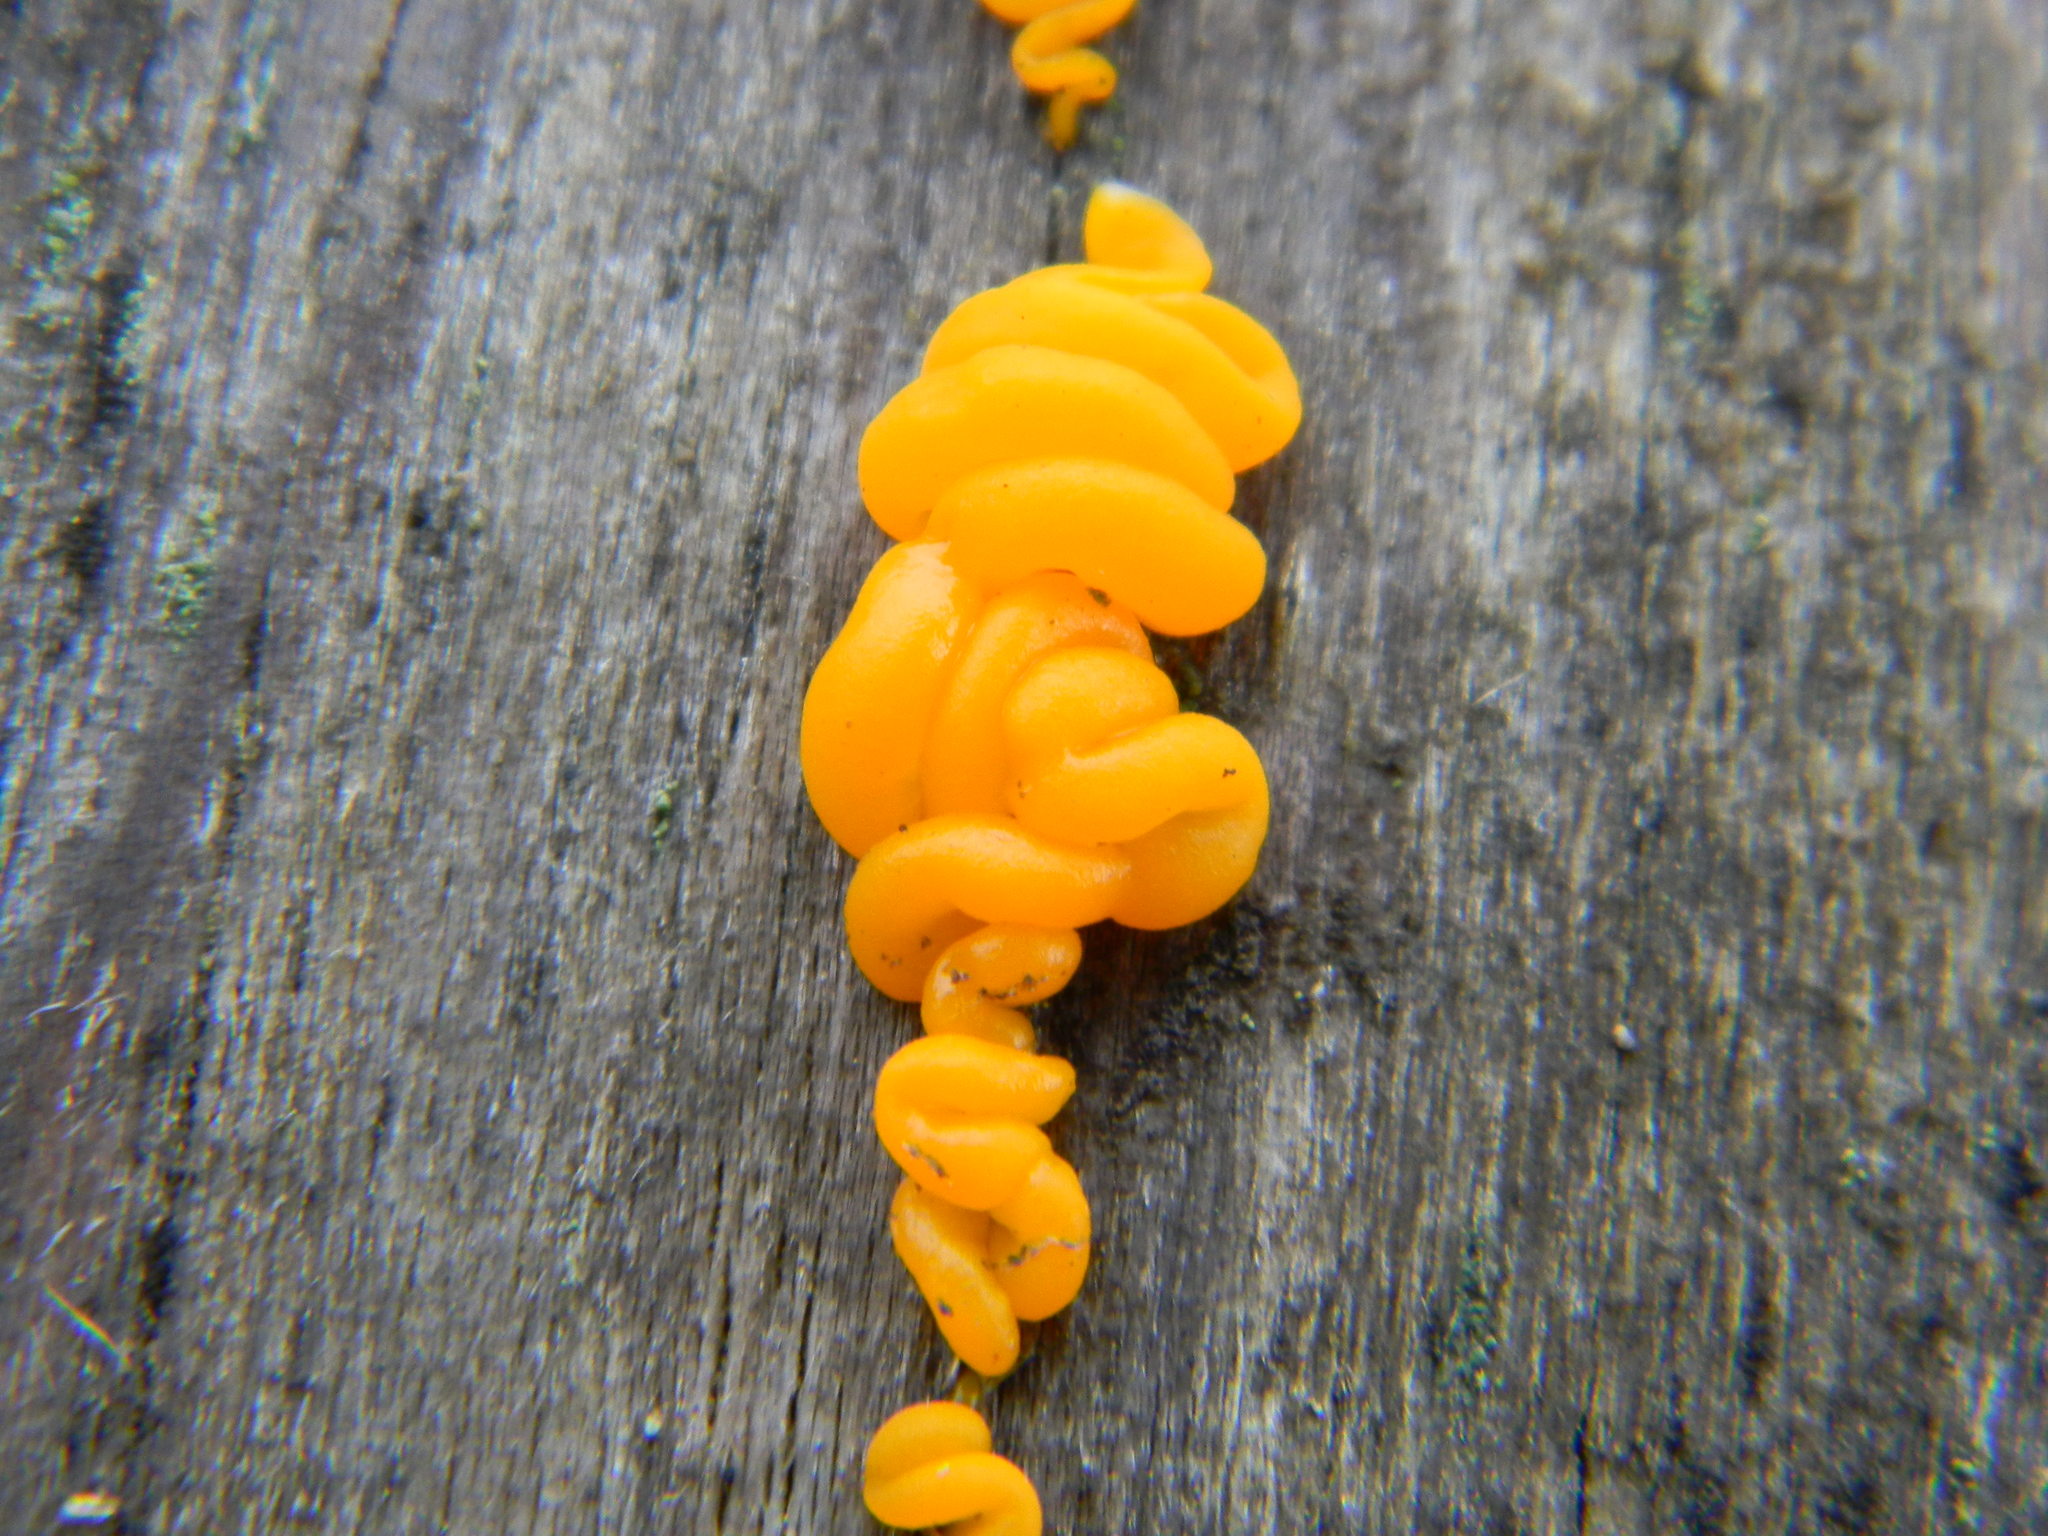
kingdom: Fungi
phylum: Basidiomycota
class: Dacrymycetes
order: Dacrymycetales
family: Dacrymycetaceae
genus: Dacrymyces
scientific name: Dacrymyces chrysospermus
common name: Orange jelly spot
